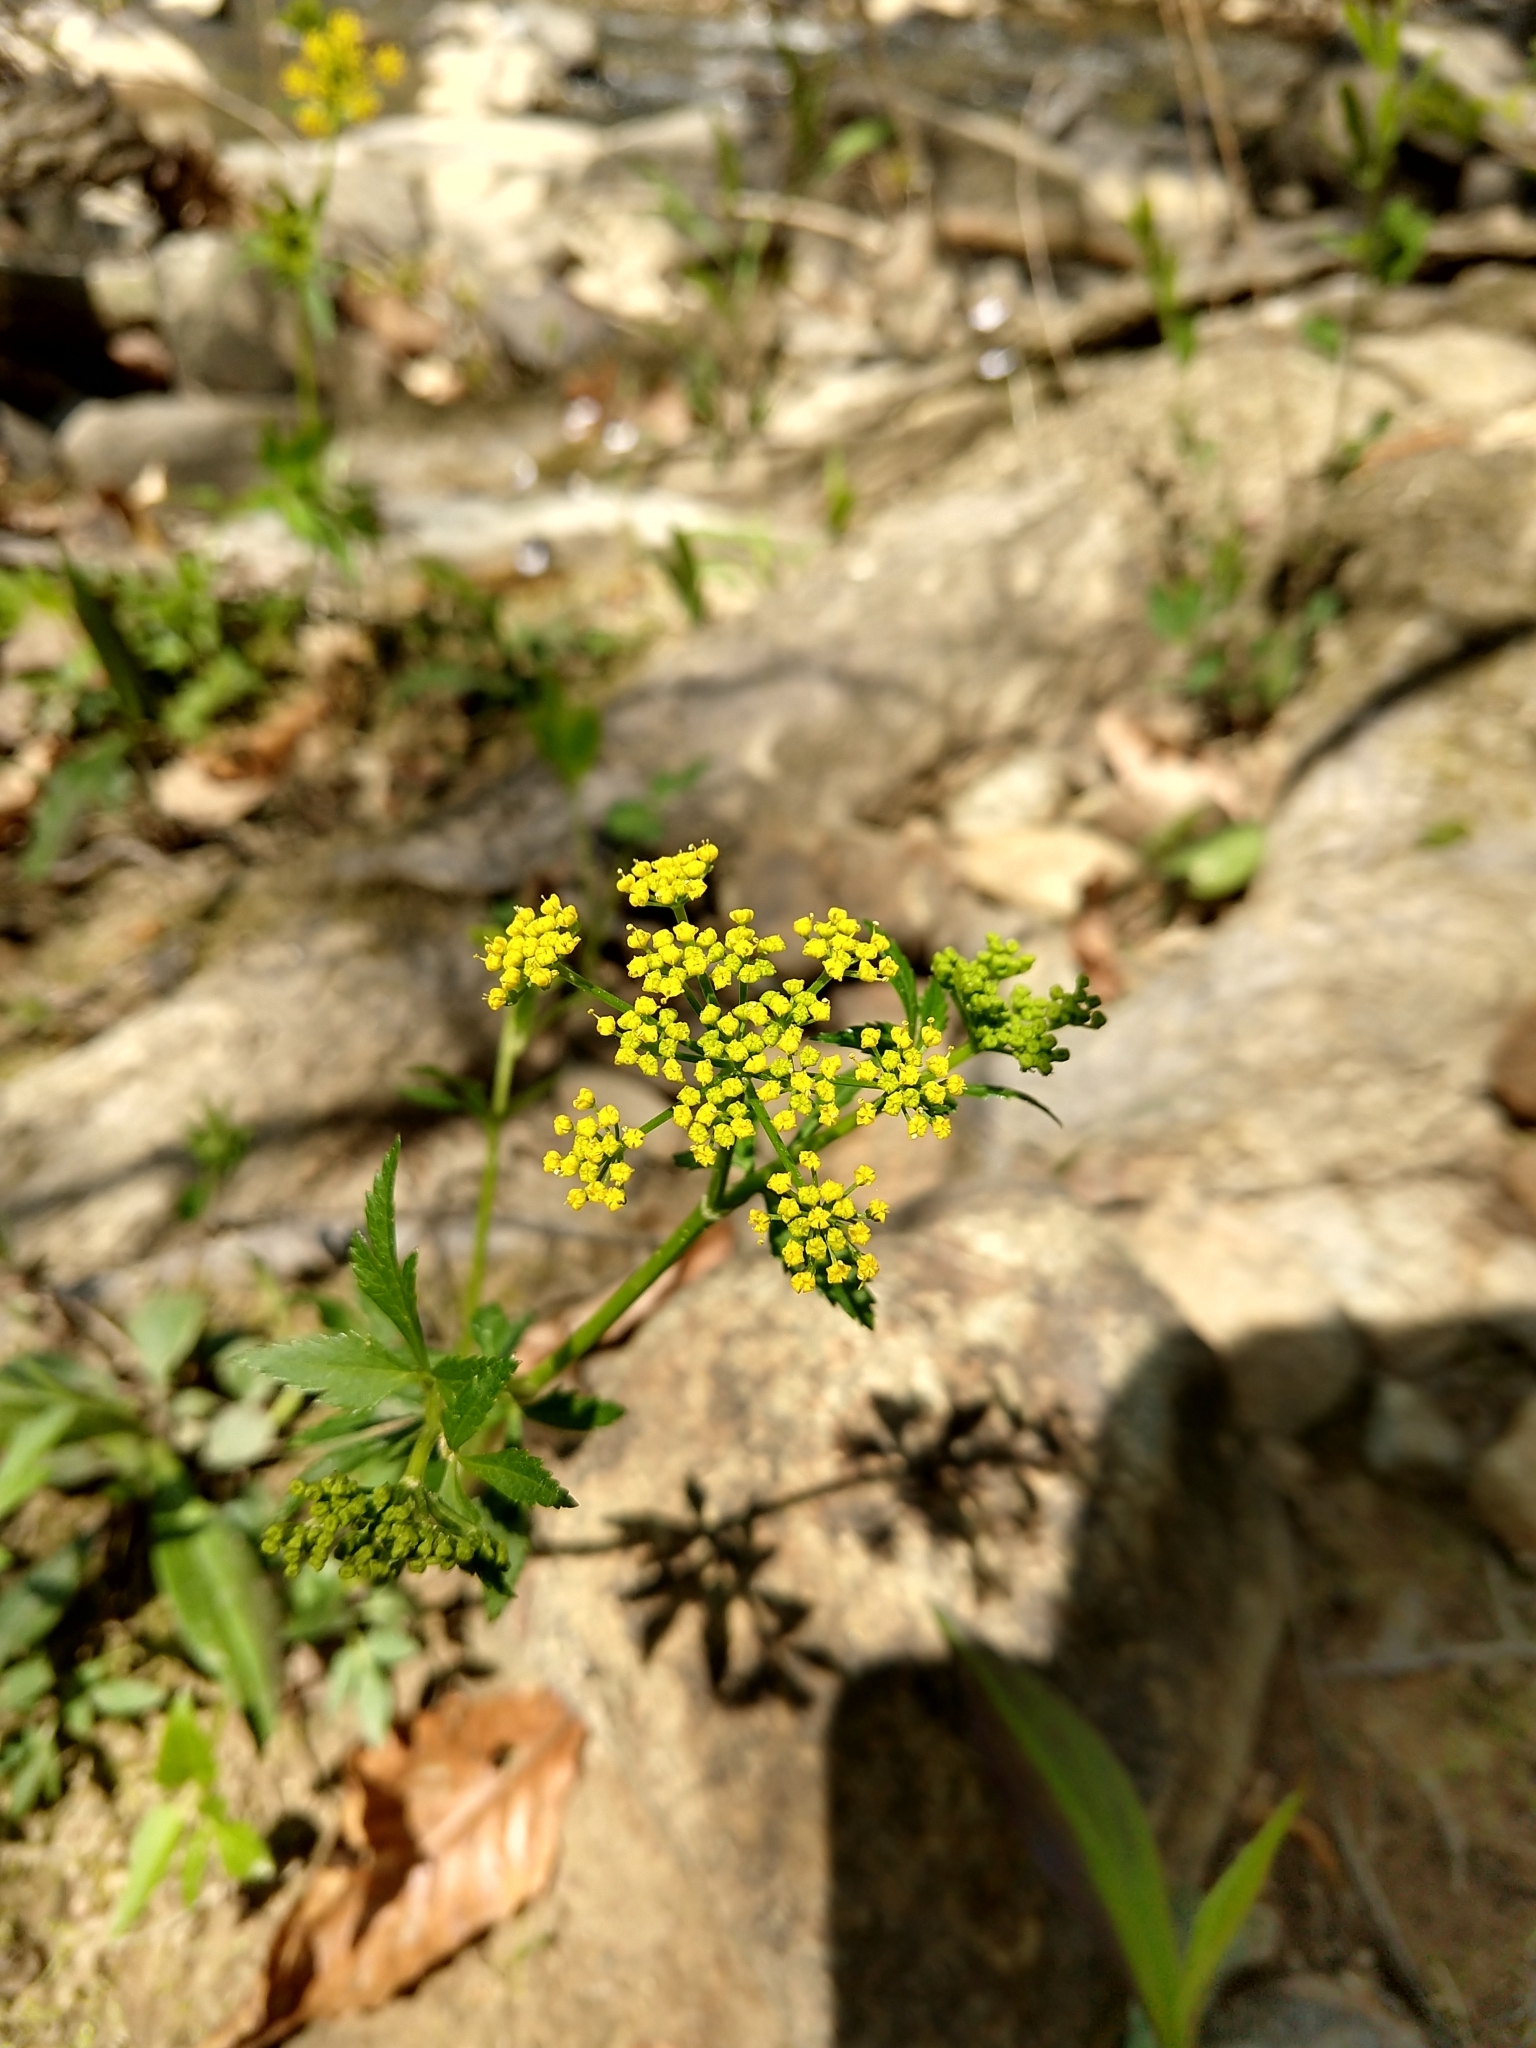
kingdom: Plantae
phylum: Tracheophyta
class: Magnoliopsida
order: Apiales
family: Apiaceae
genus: Zizia
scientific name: Zizia aurea
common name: Golden alexanders
